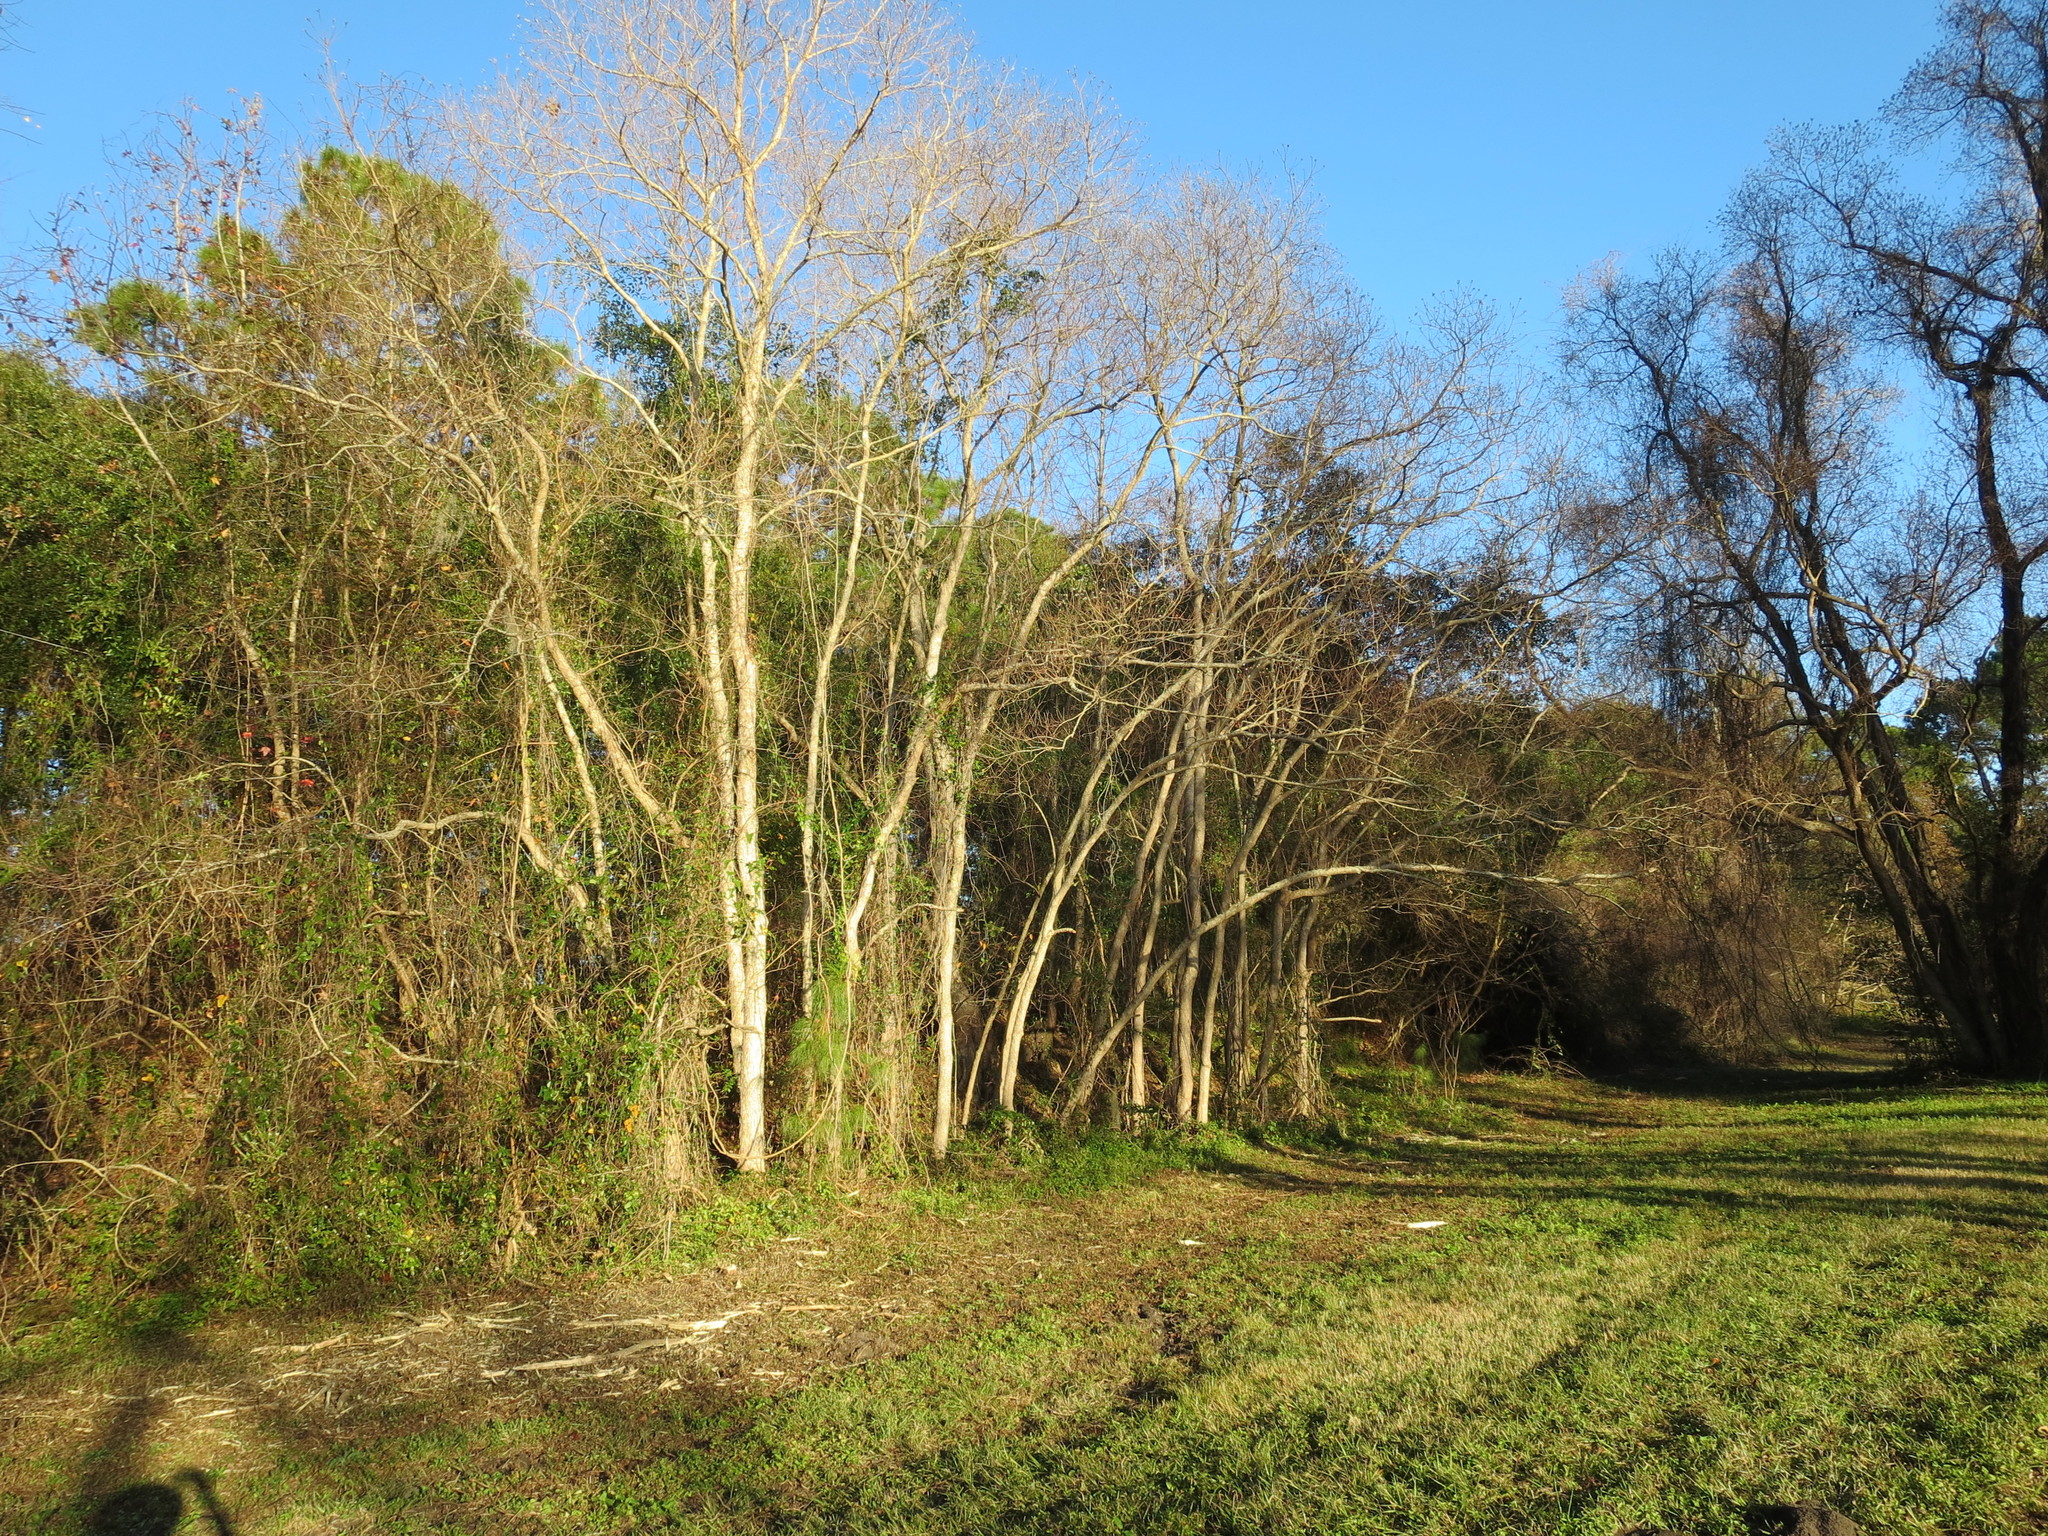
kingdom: Plantae
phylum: Tracheophyta
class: Magnoliopsida
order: Malpighiales
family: Euphorbiaceae
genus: Triadica
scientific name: Triadica sebifera
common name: Chinese tallow
